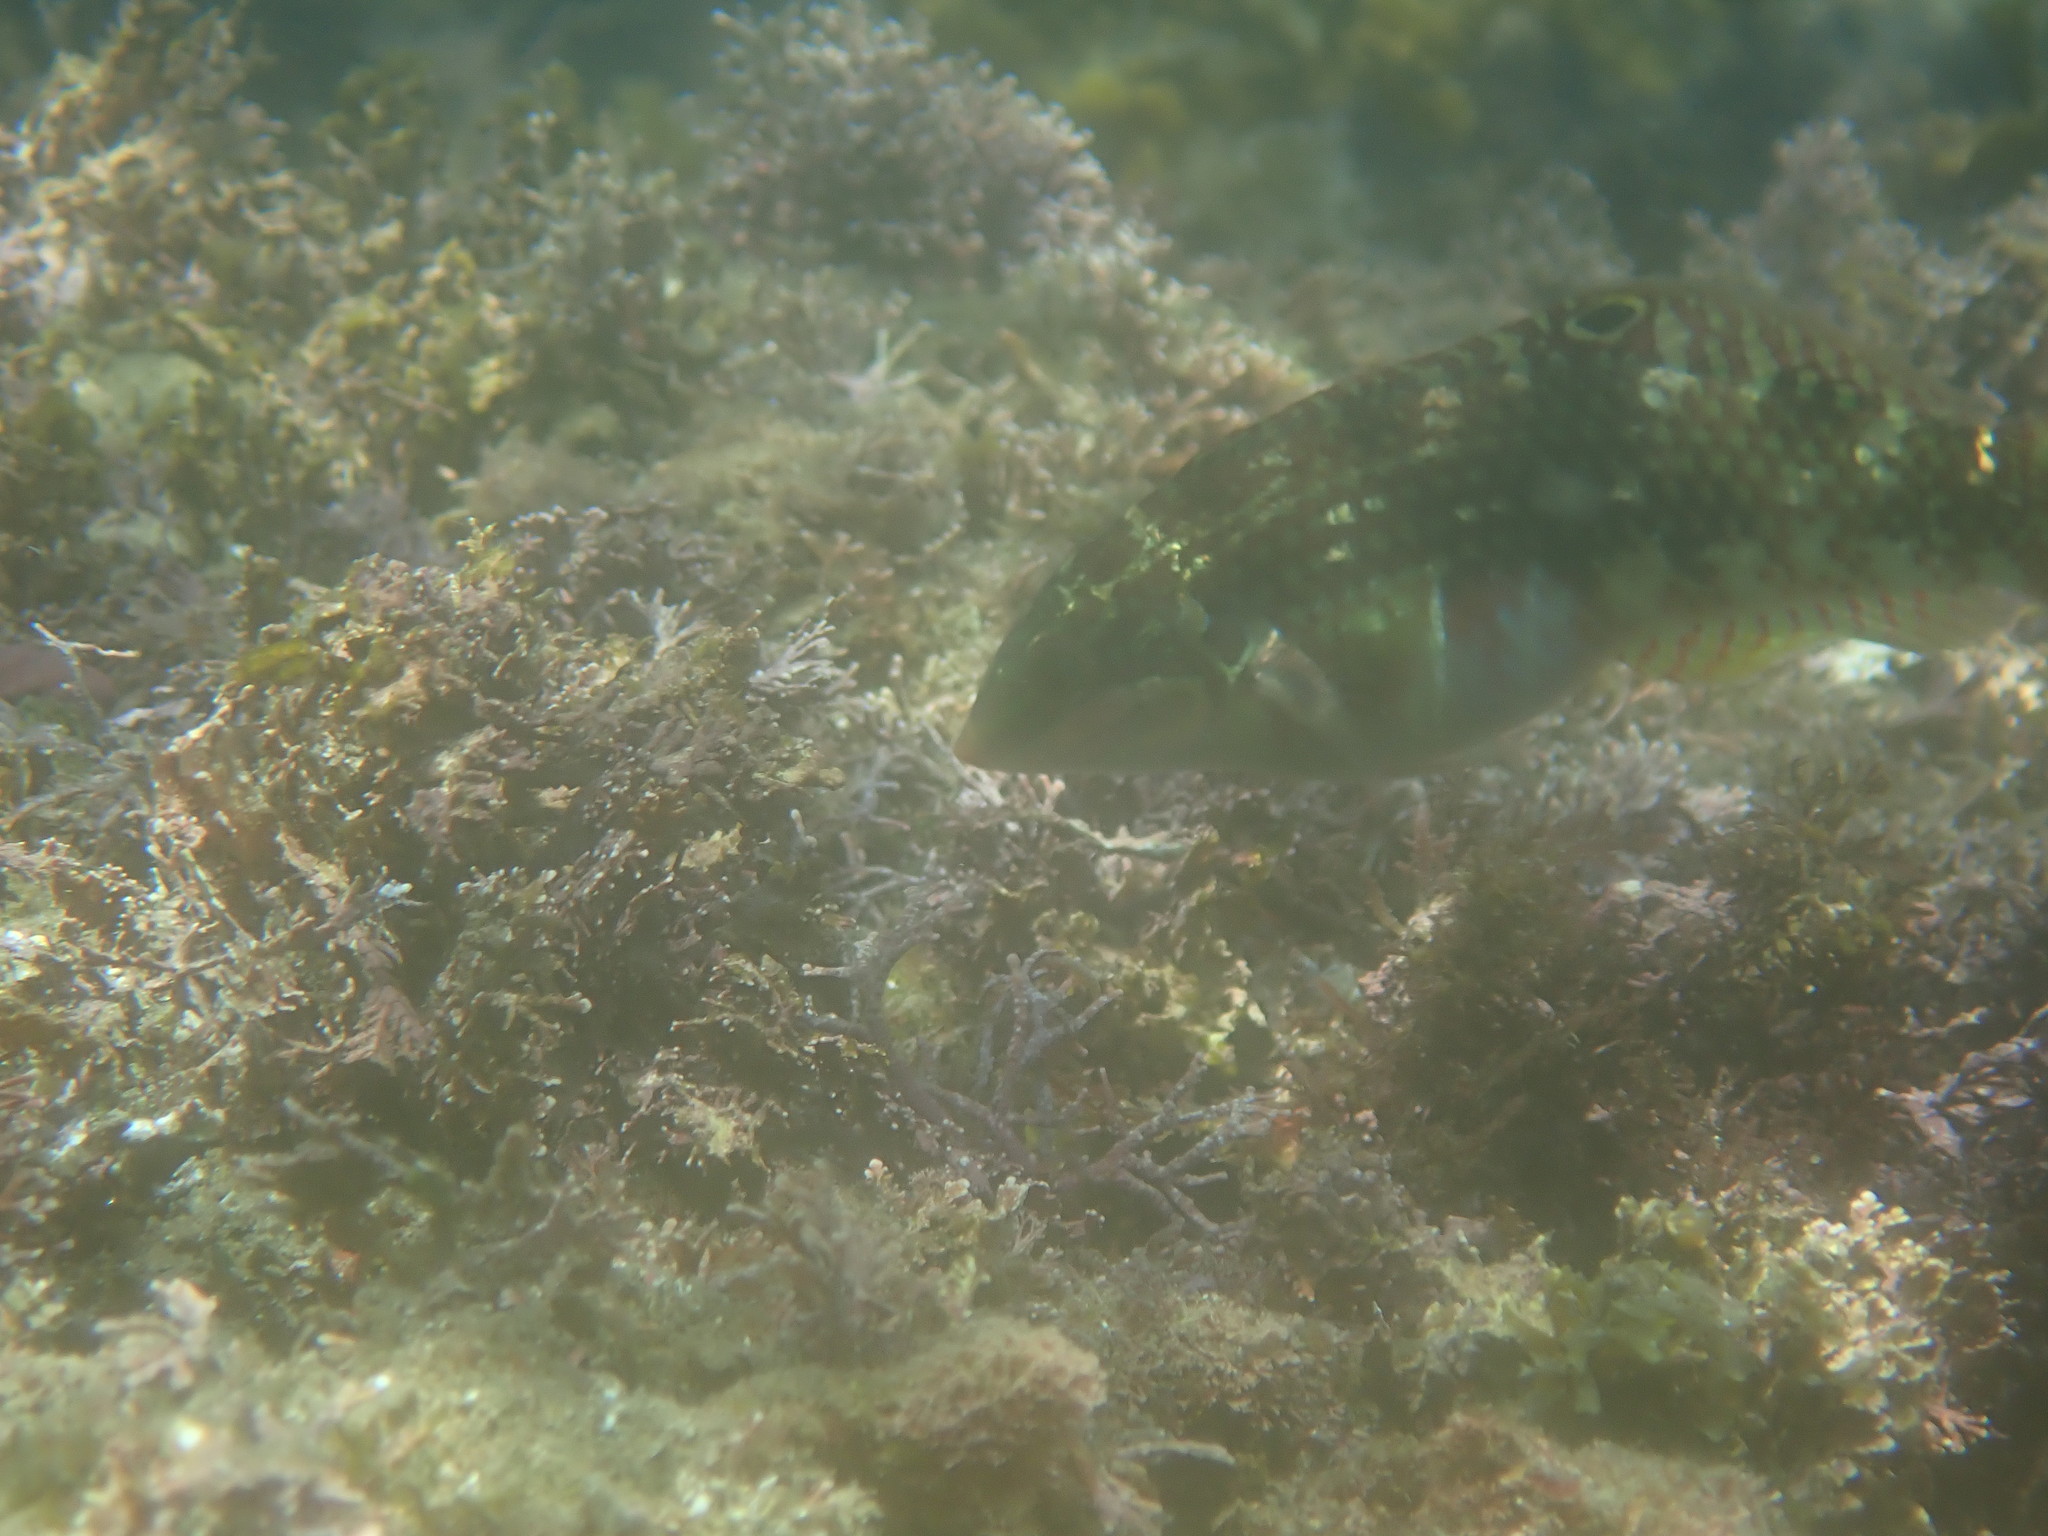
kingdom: Animalia
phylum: Chordata
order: Perciformes
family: Labridae
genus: Halichoeres
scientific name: Halichoeres margaritaceus
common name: Pink-belly wrasse
